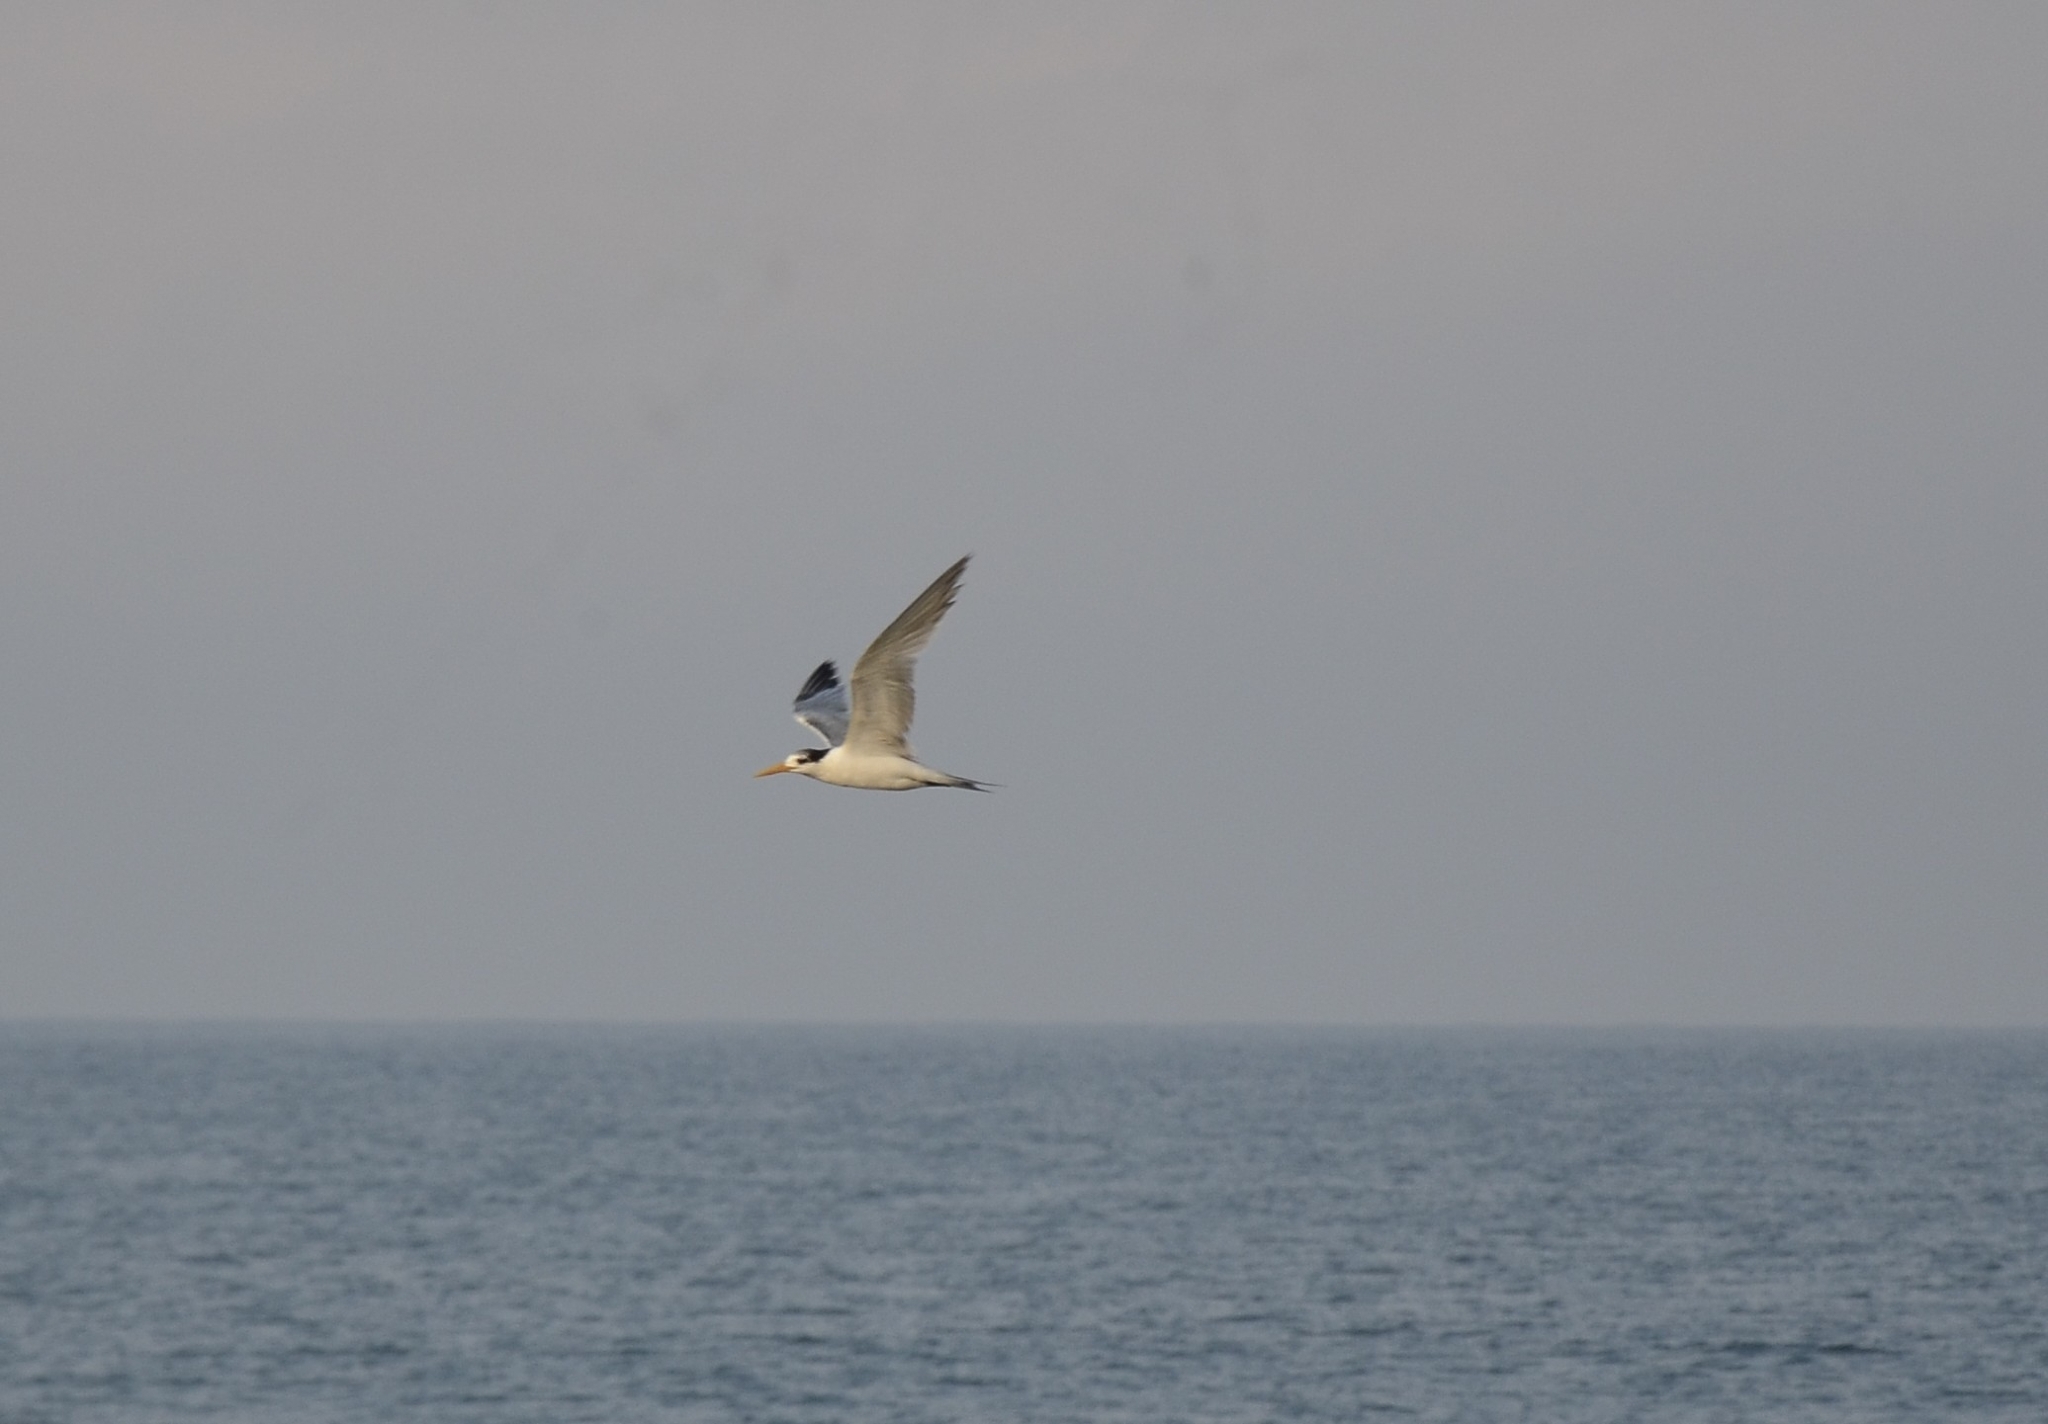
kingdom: Animalia
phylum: Chordata
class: Aves
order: Charadriiformes
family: Laridae
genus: Thalasseus
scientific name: Thalasseus bergii
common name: Greater crested tern
